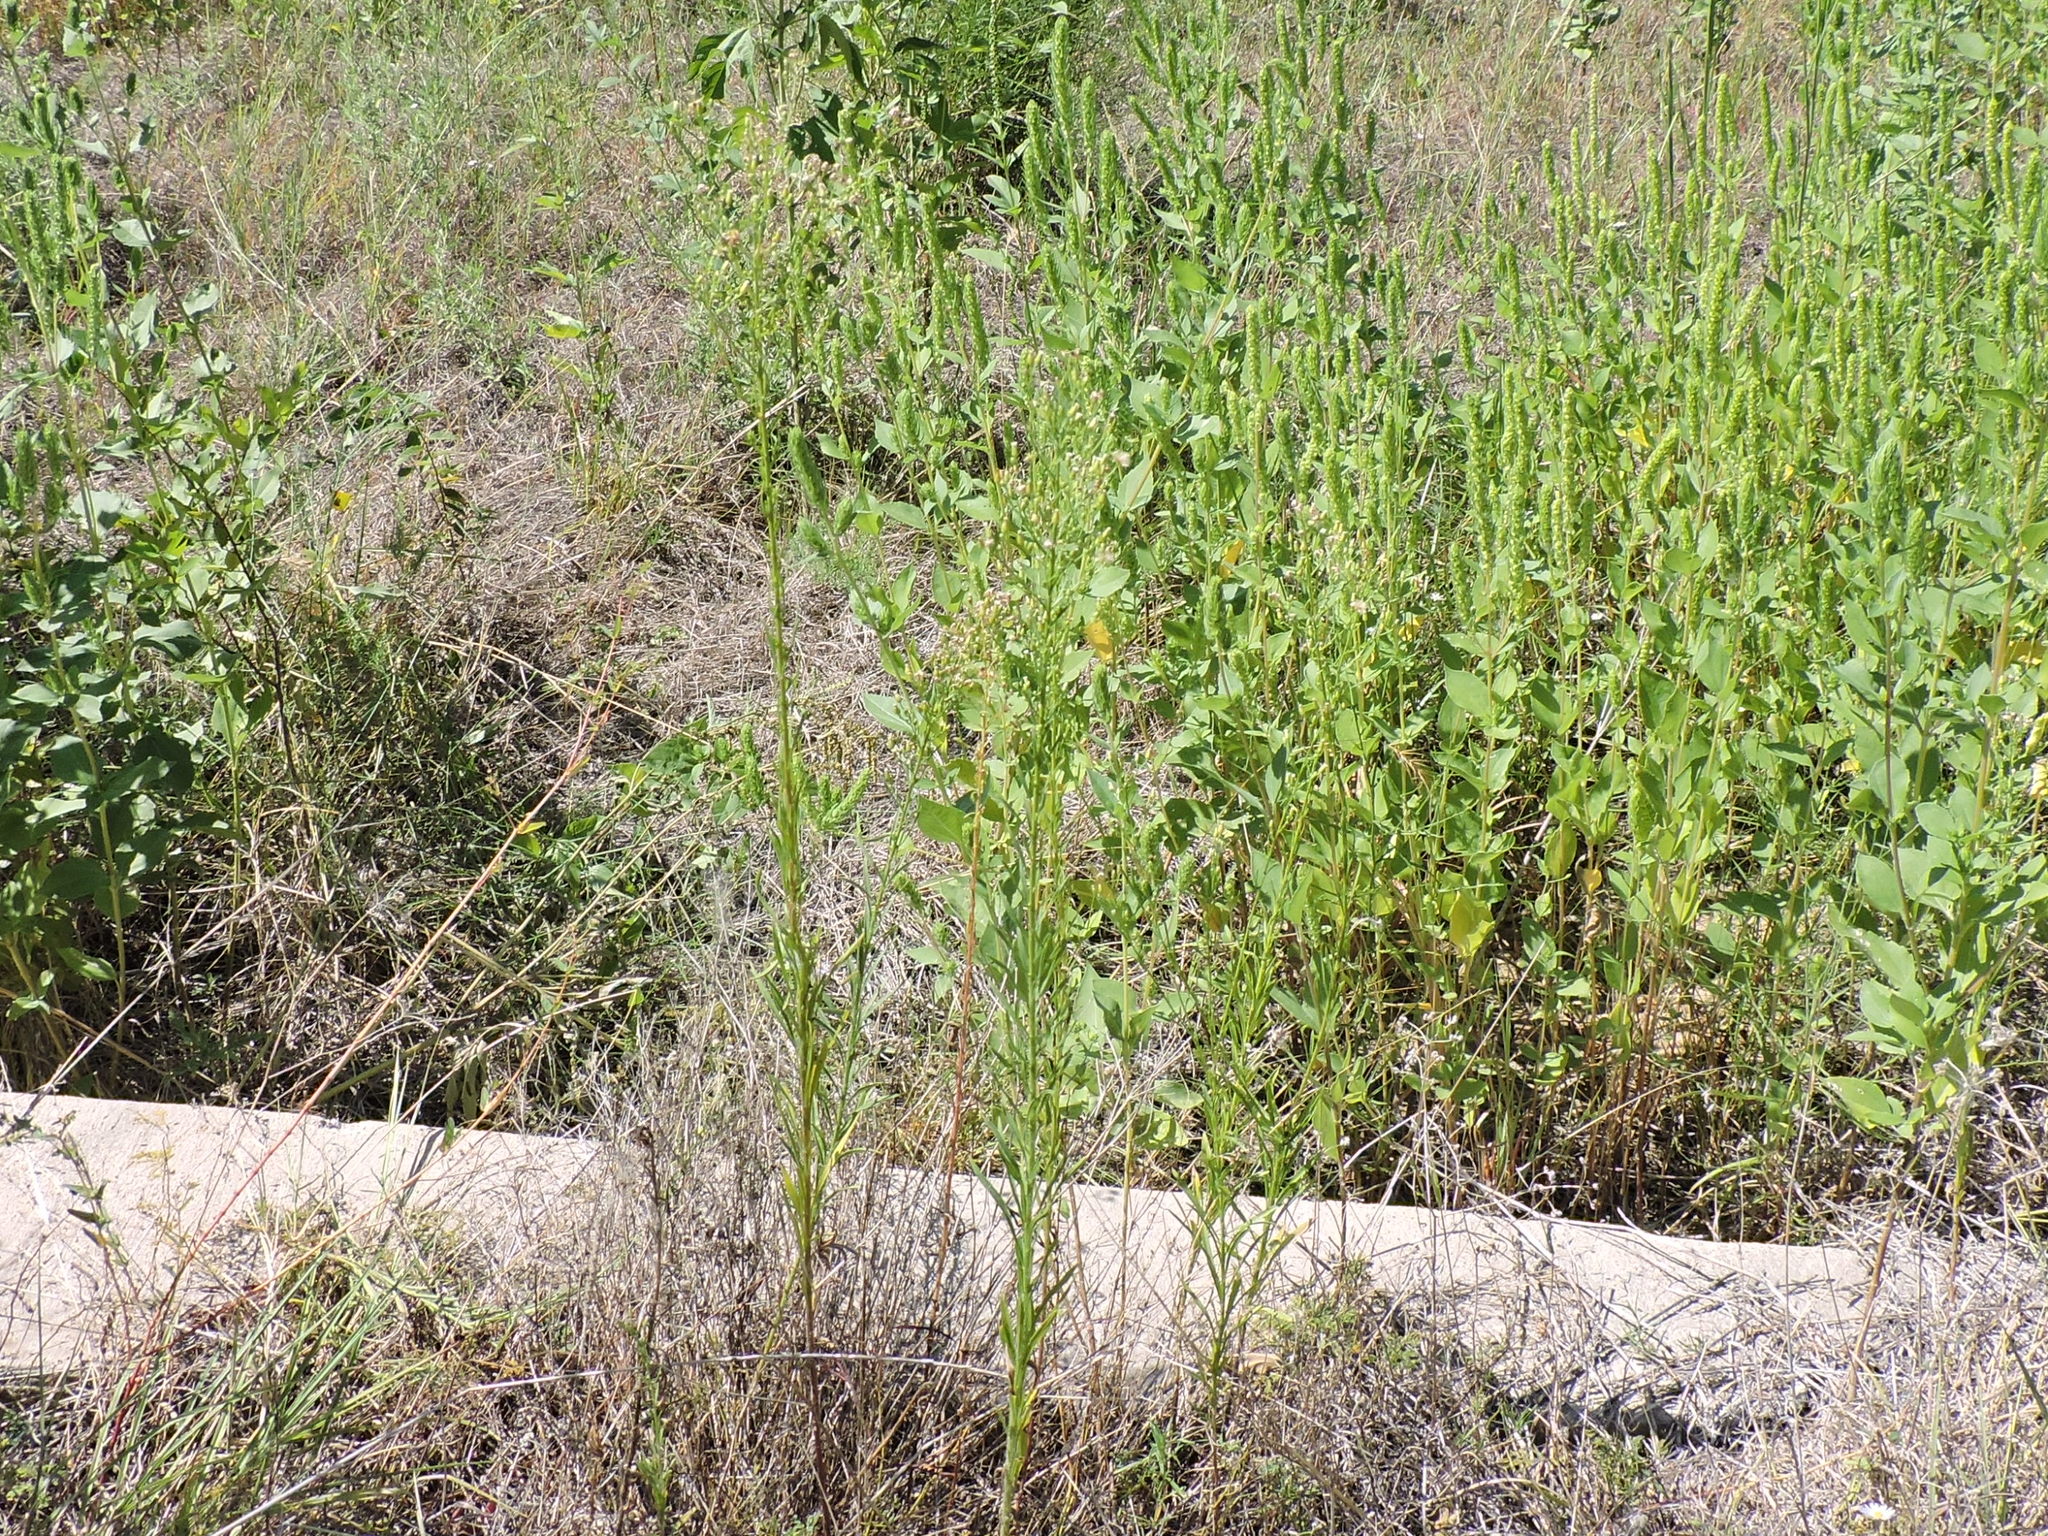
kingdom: Plantae
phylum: Tracheophyta
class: Magnoliopsida
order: Asterales
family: Asteraceae
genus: Erigeron
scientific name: Erigeron canadensis
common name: Canadian fleabane
